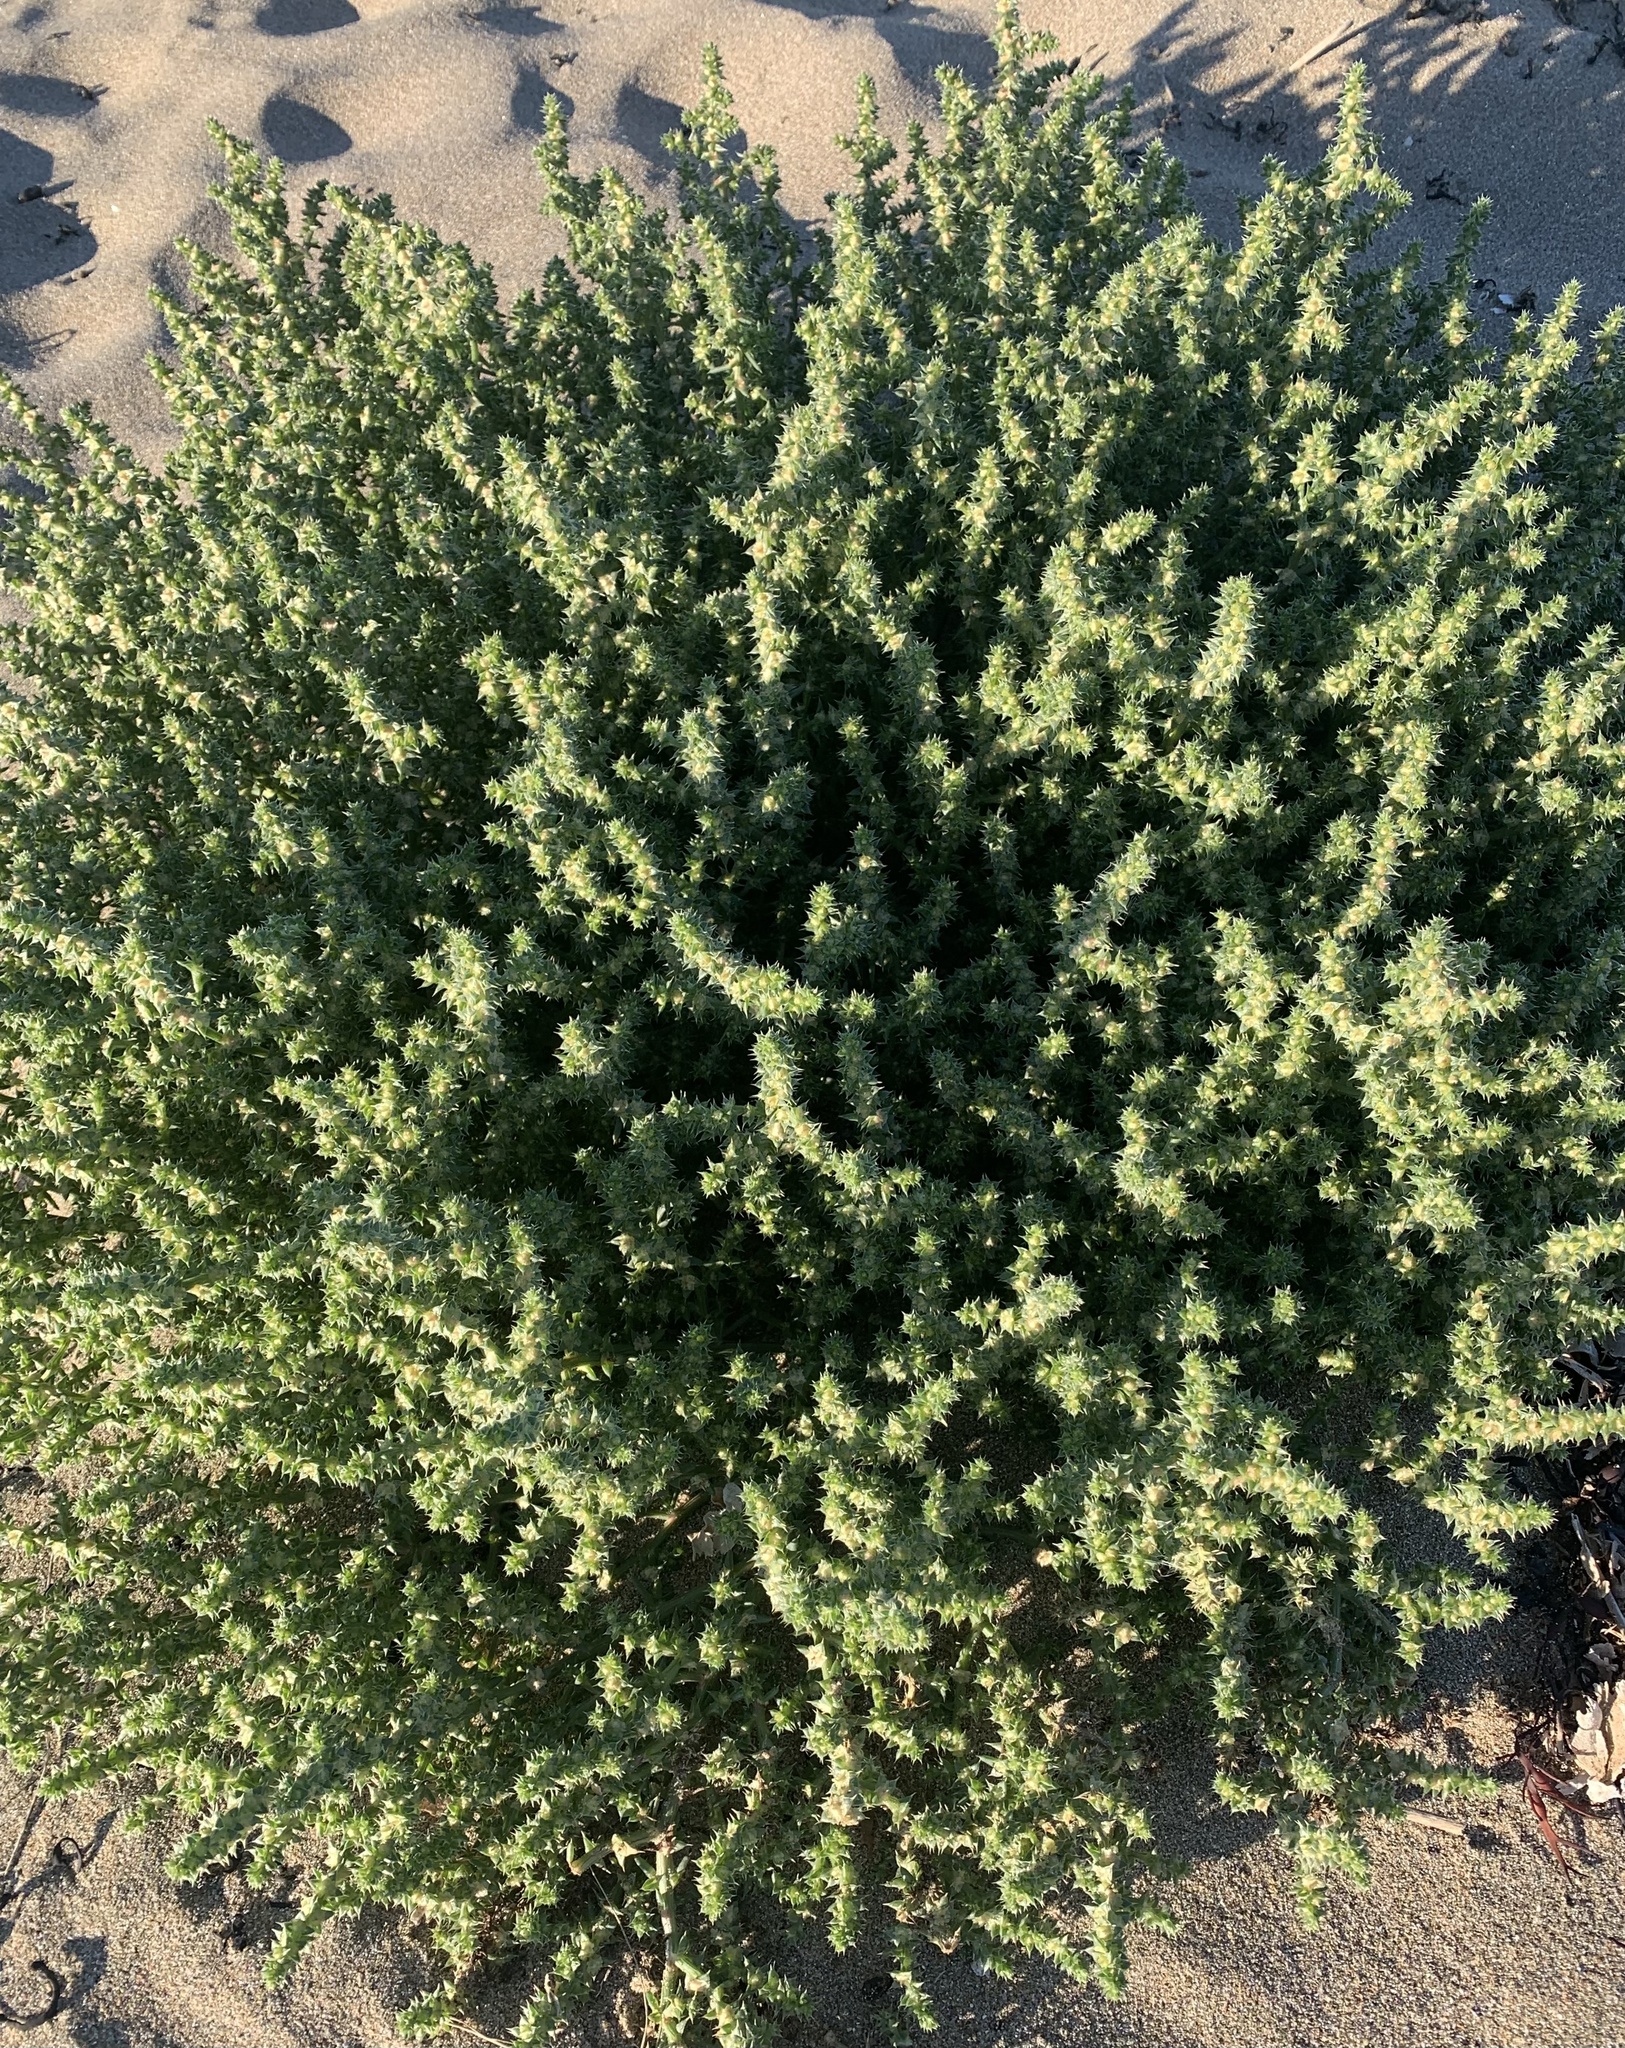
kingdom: Plantae
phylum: Tracheophyta
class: Magnoliopsida
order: Caryophyllales
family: Amaranthaceae
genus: Salsola
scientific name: Salsola kali
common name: Saltwort
